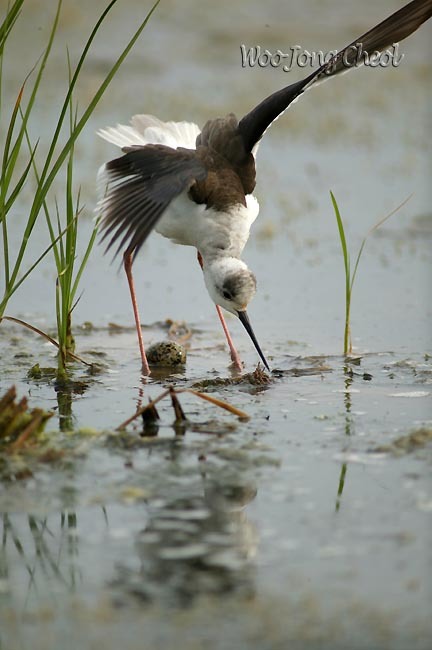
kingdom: Animalia
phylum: Chordata
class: Aves
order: Charadriiformes
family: Recurvirostridae
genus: Himantopus
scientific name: Himantopus himantopus
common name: Black-winged stilt
